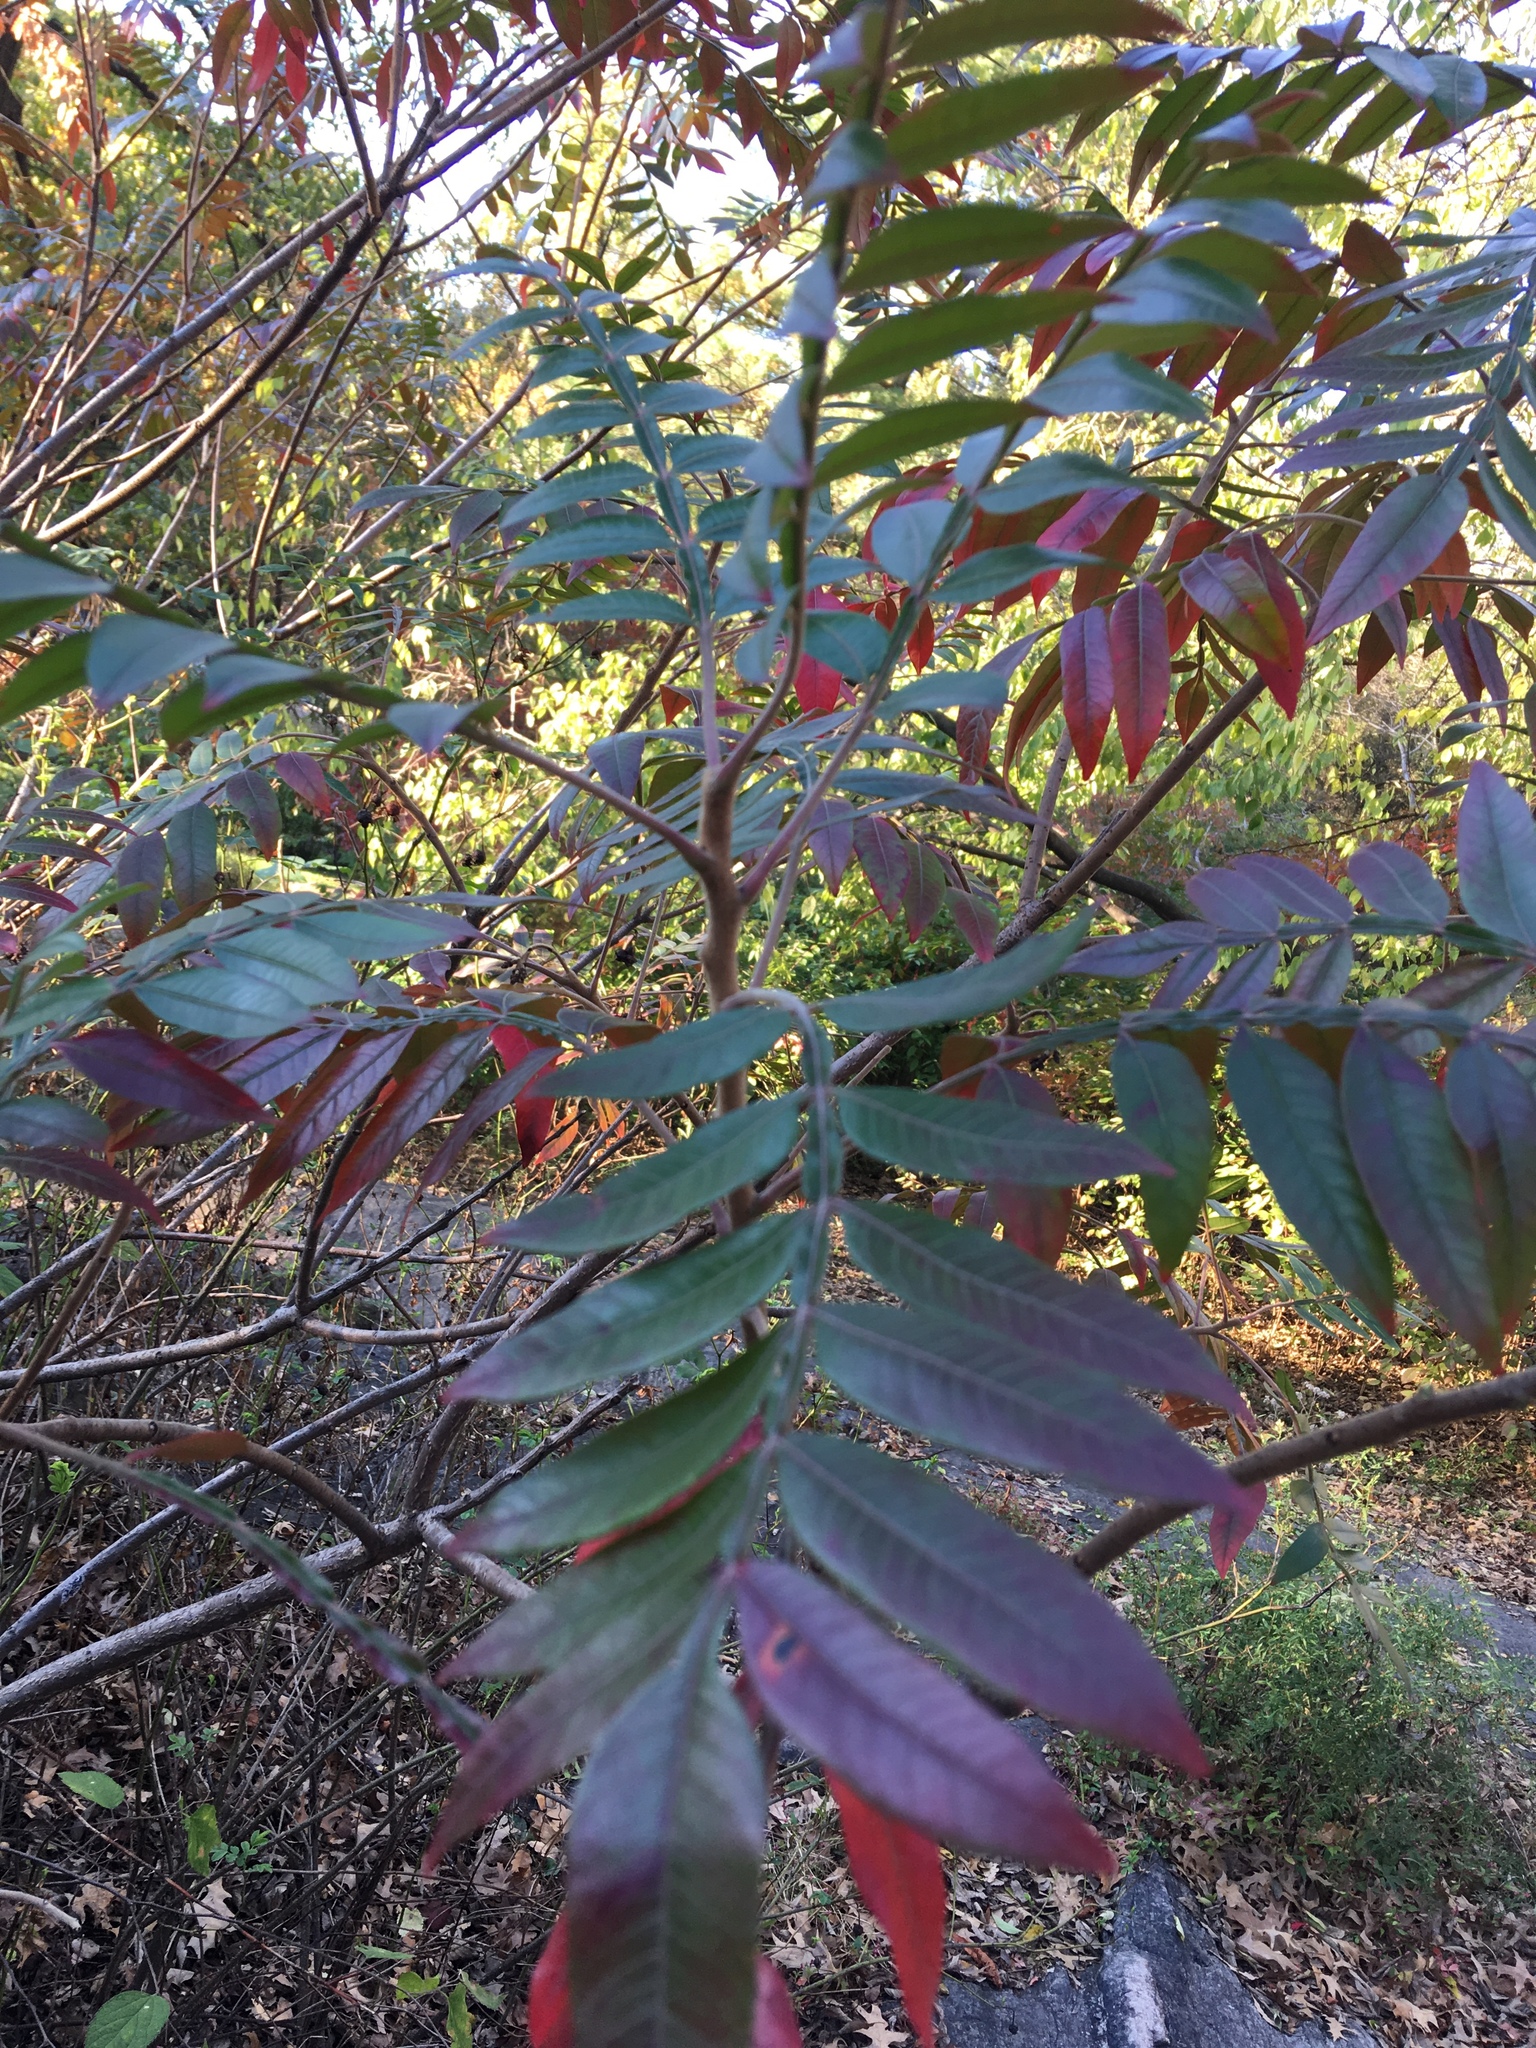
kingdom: Plantae
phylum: Tracheophyta
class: Magnoliopsida
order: Sapindales
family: Anacardiaceae
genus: Rhus
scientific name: Rhus copallina
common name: Shining sumac
